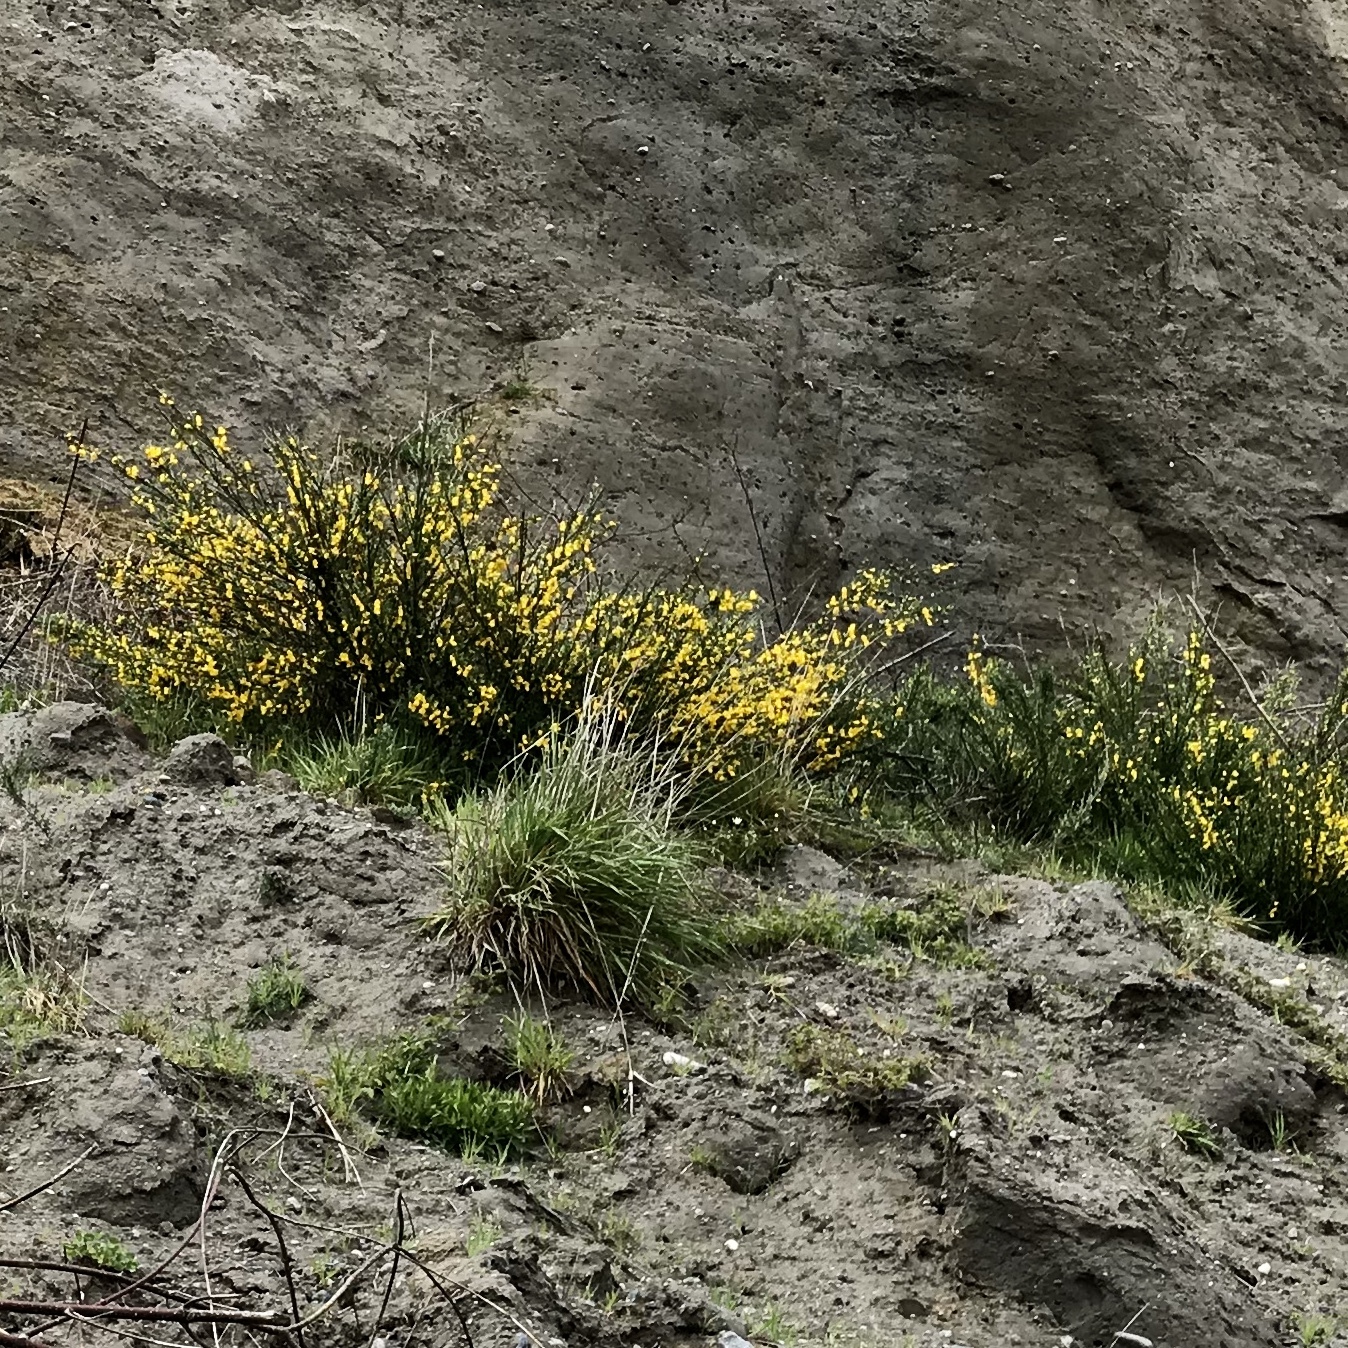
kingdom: Plantae
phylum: Tracheophyta
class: Magnoliopsida
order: Fabales
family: Fabaceae
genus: Cytisus
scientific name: Cytisus scoparius
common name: Scotch broom
